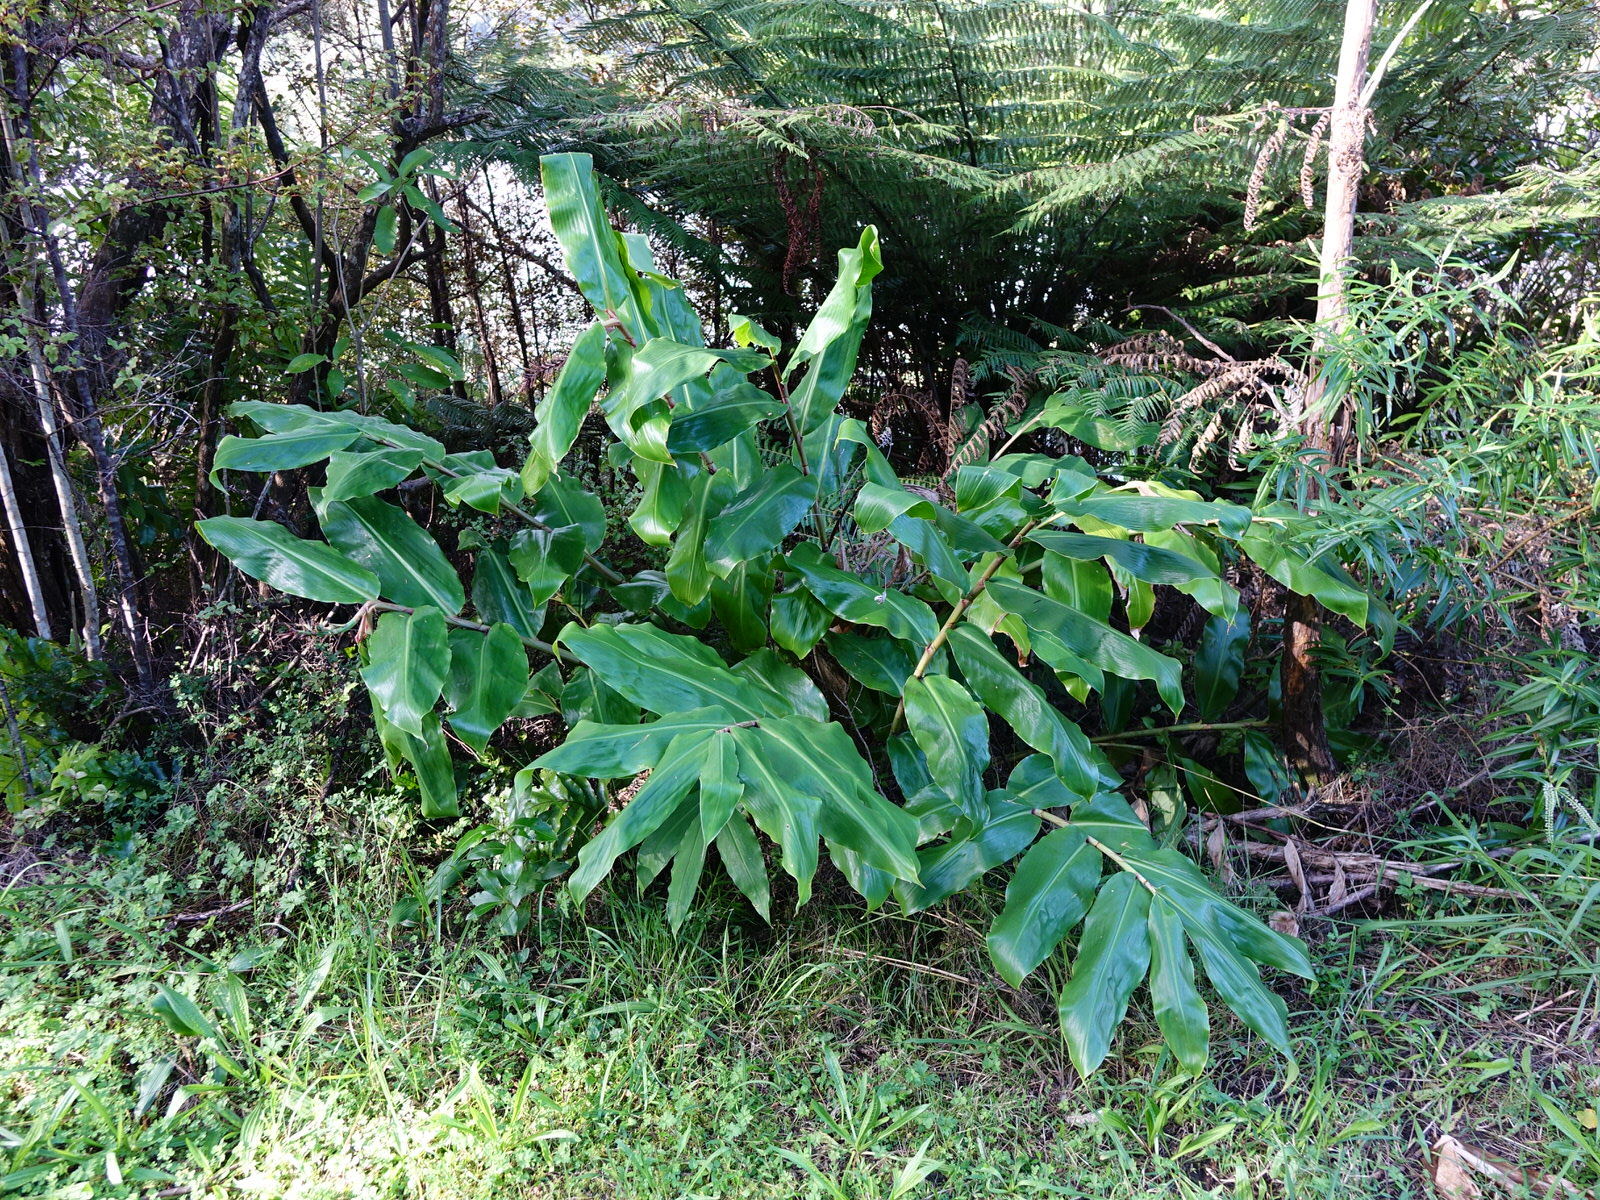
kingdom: Plantae
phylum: Tracheophyta
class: Liliopsida
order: Zingiberales
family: Zingiberaceae
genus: Hedychium
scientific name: Hedychium gardnerianum
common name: Himalayan ginger
